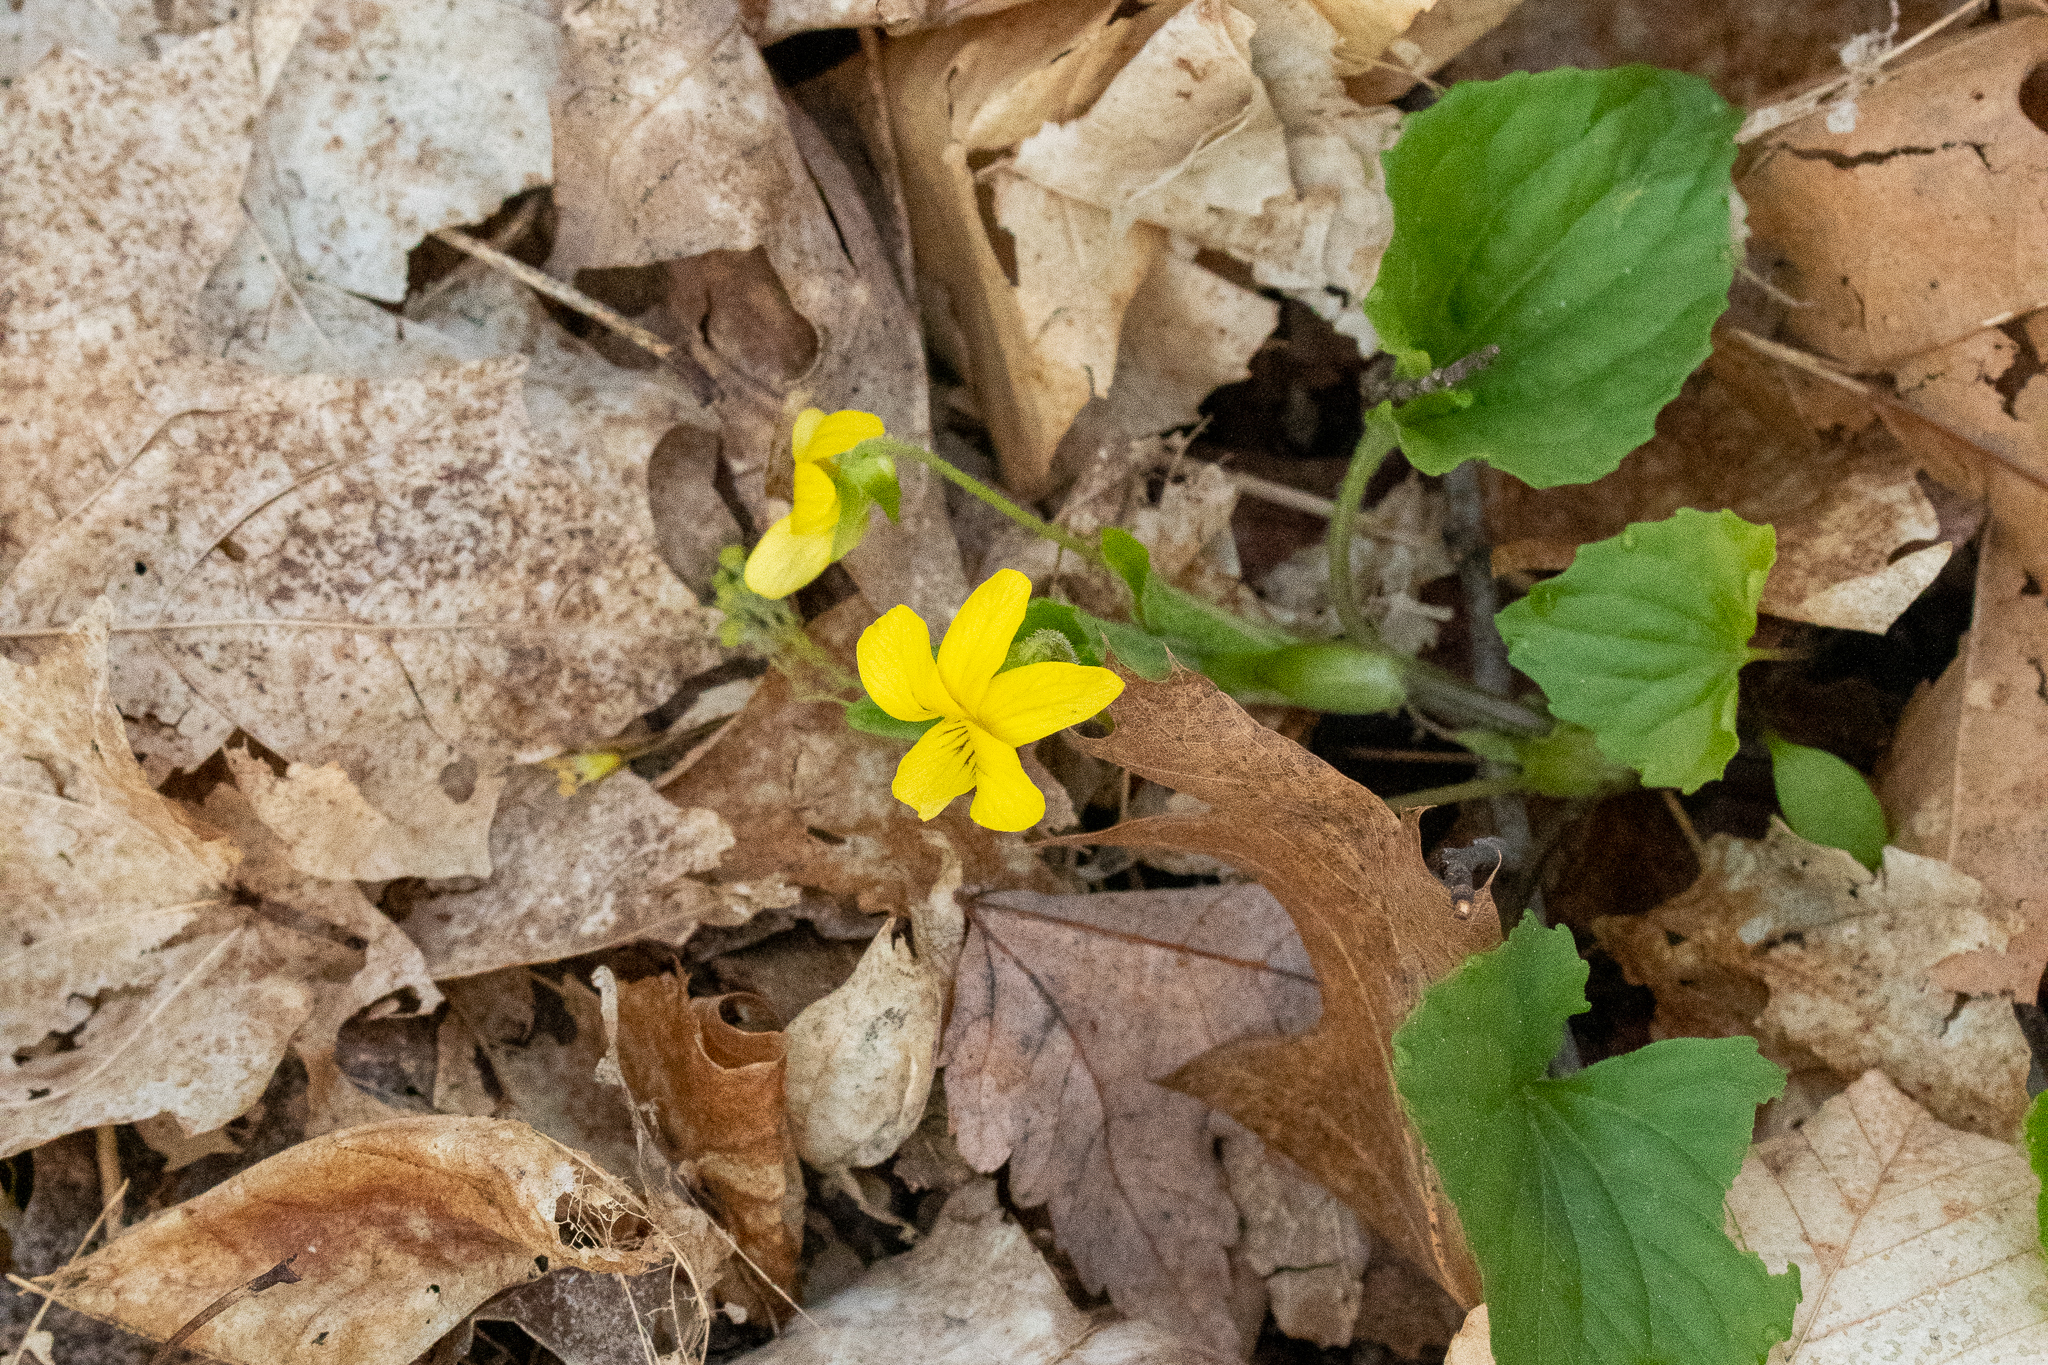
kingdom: Plantae
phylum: Tracheophyta
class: Magnoliopsida
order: Malpighiales
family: Violaceae
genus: Viola
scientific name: Viola eriocarpa
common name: Smooth yellow violet
